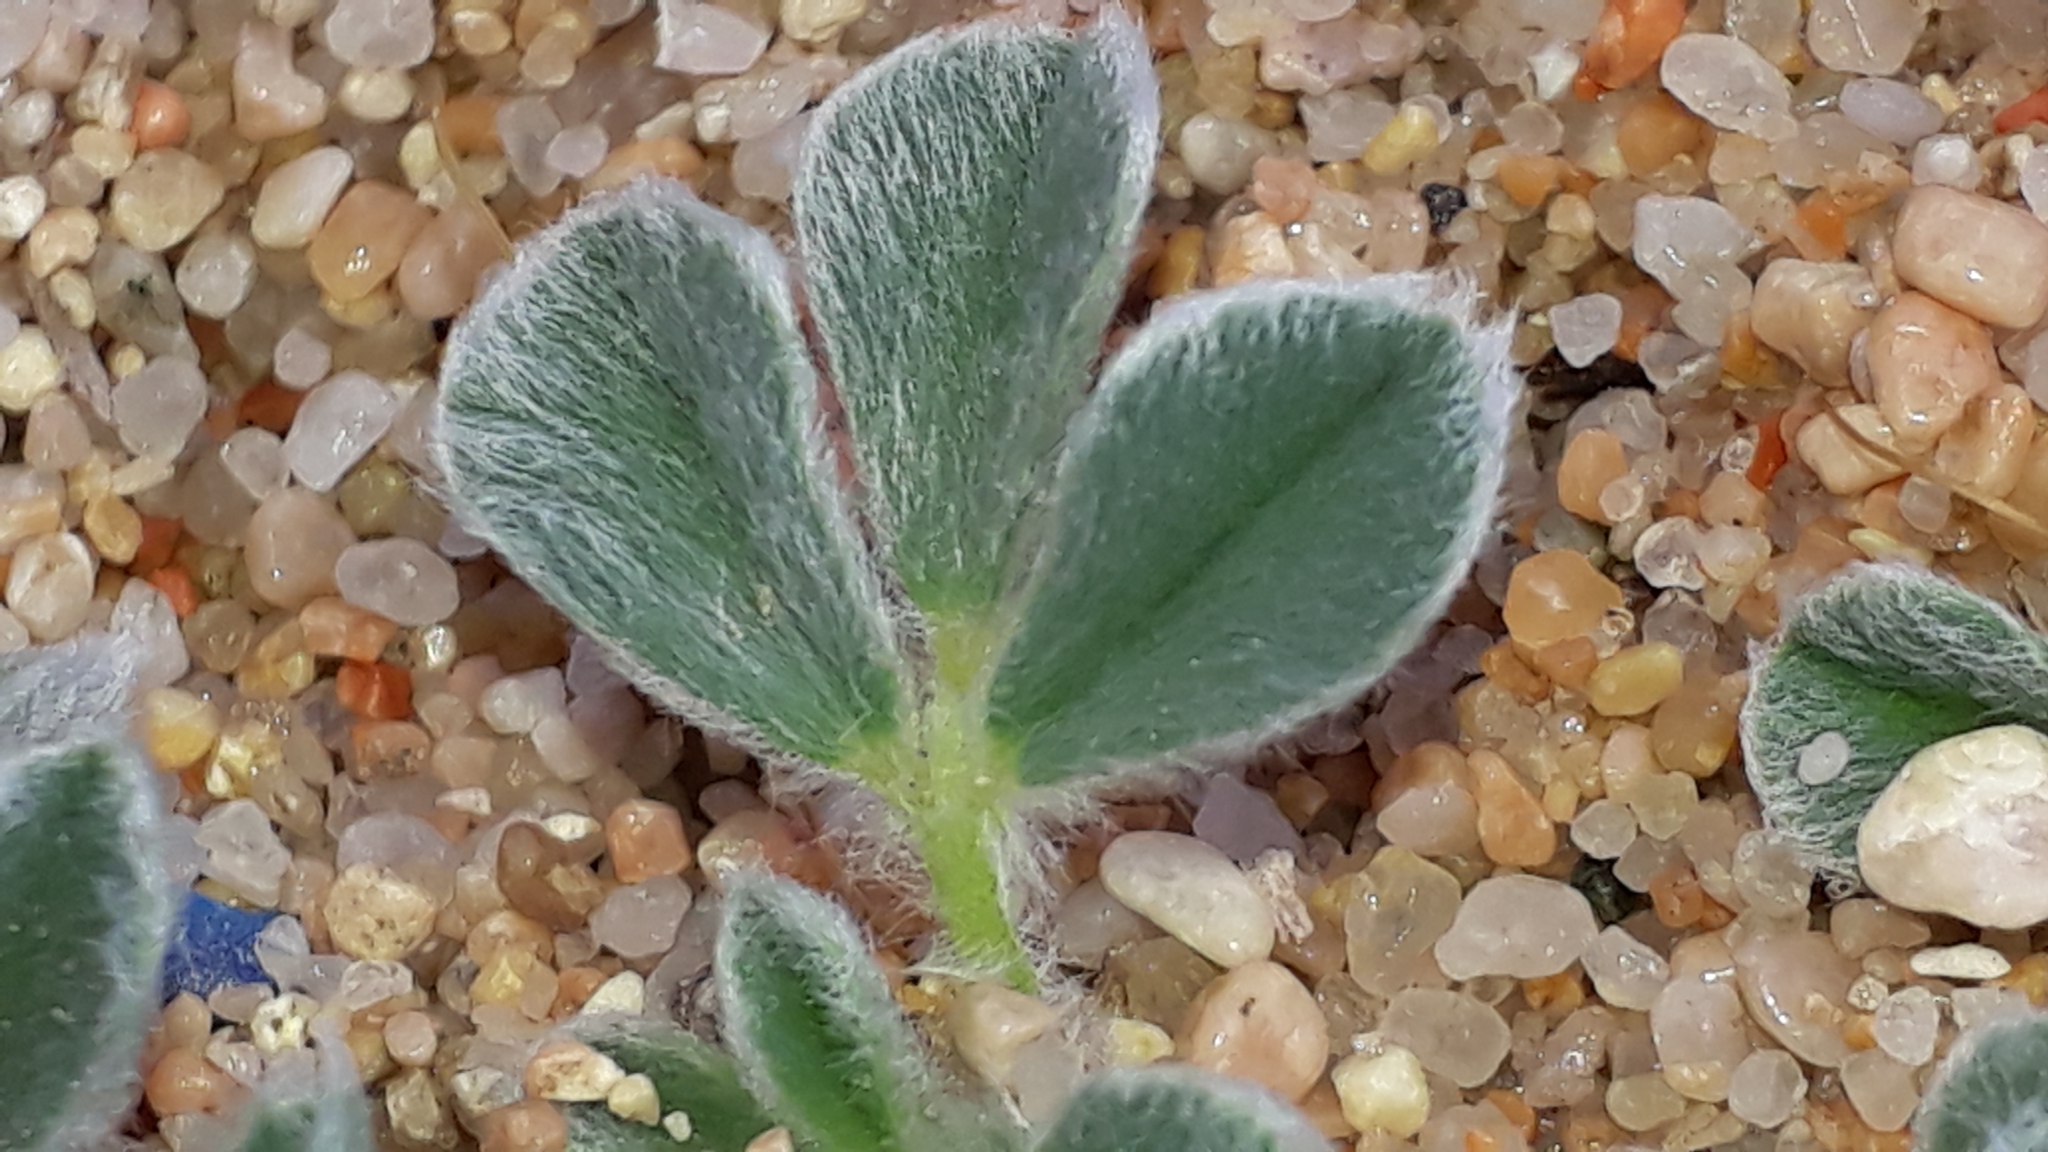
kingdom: Plantae
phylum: Tracheophyta
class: Magnoliopsida
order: Fabales
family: Fabaceae
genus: Medicago
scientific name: Medicago marina
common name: Sea medick
